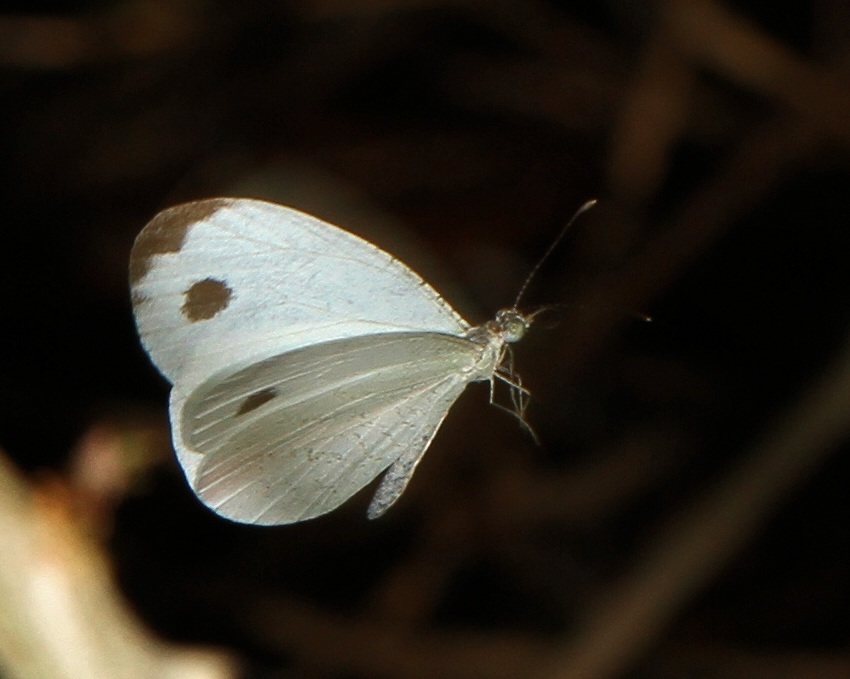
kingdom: Animalia
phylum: Arthropoda
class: Insecta
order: Lepidoptera
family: Pieridae
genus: Leptosia
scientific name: Leptosia alcesta
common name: African wood white
